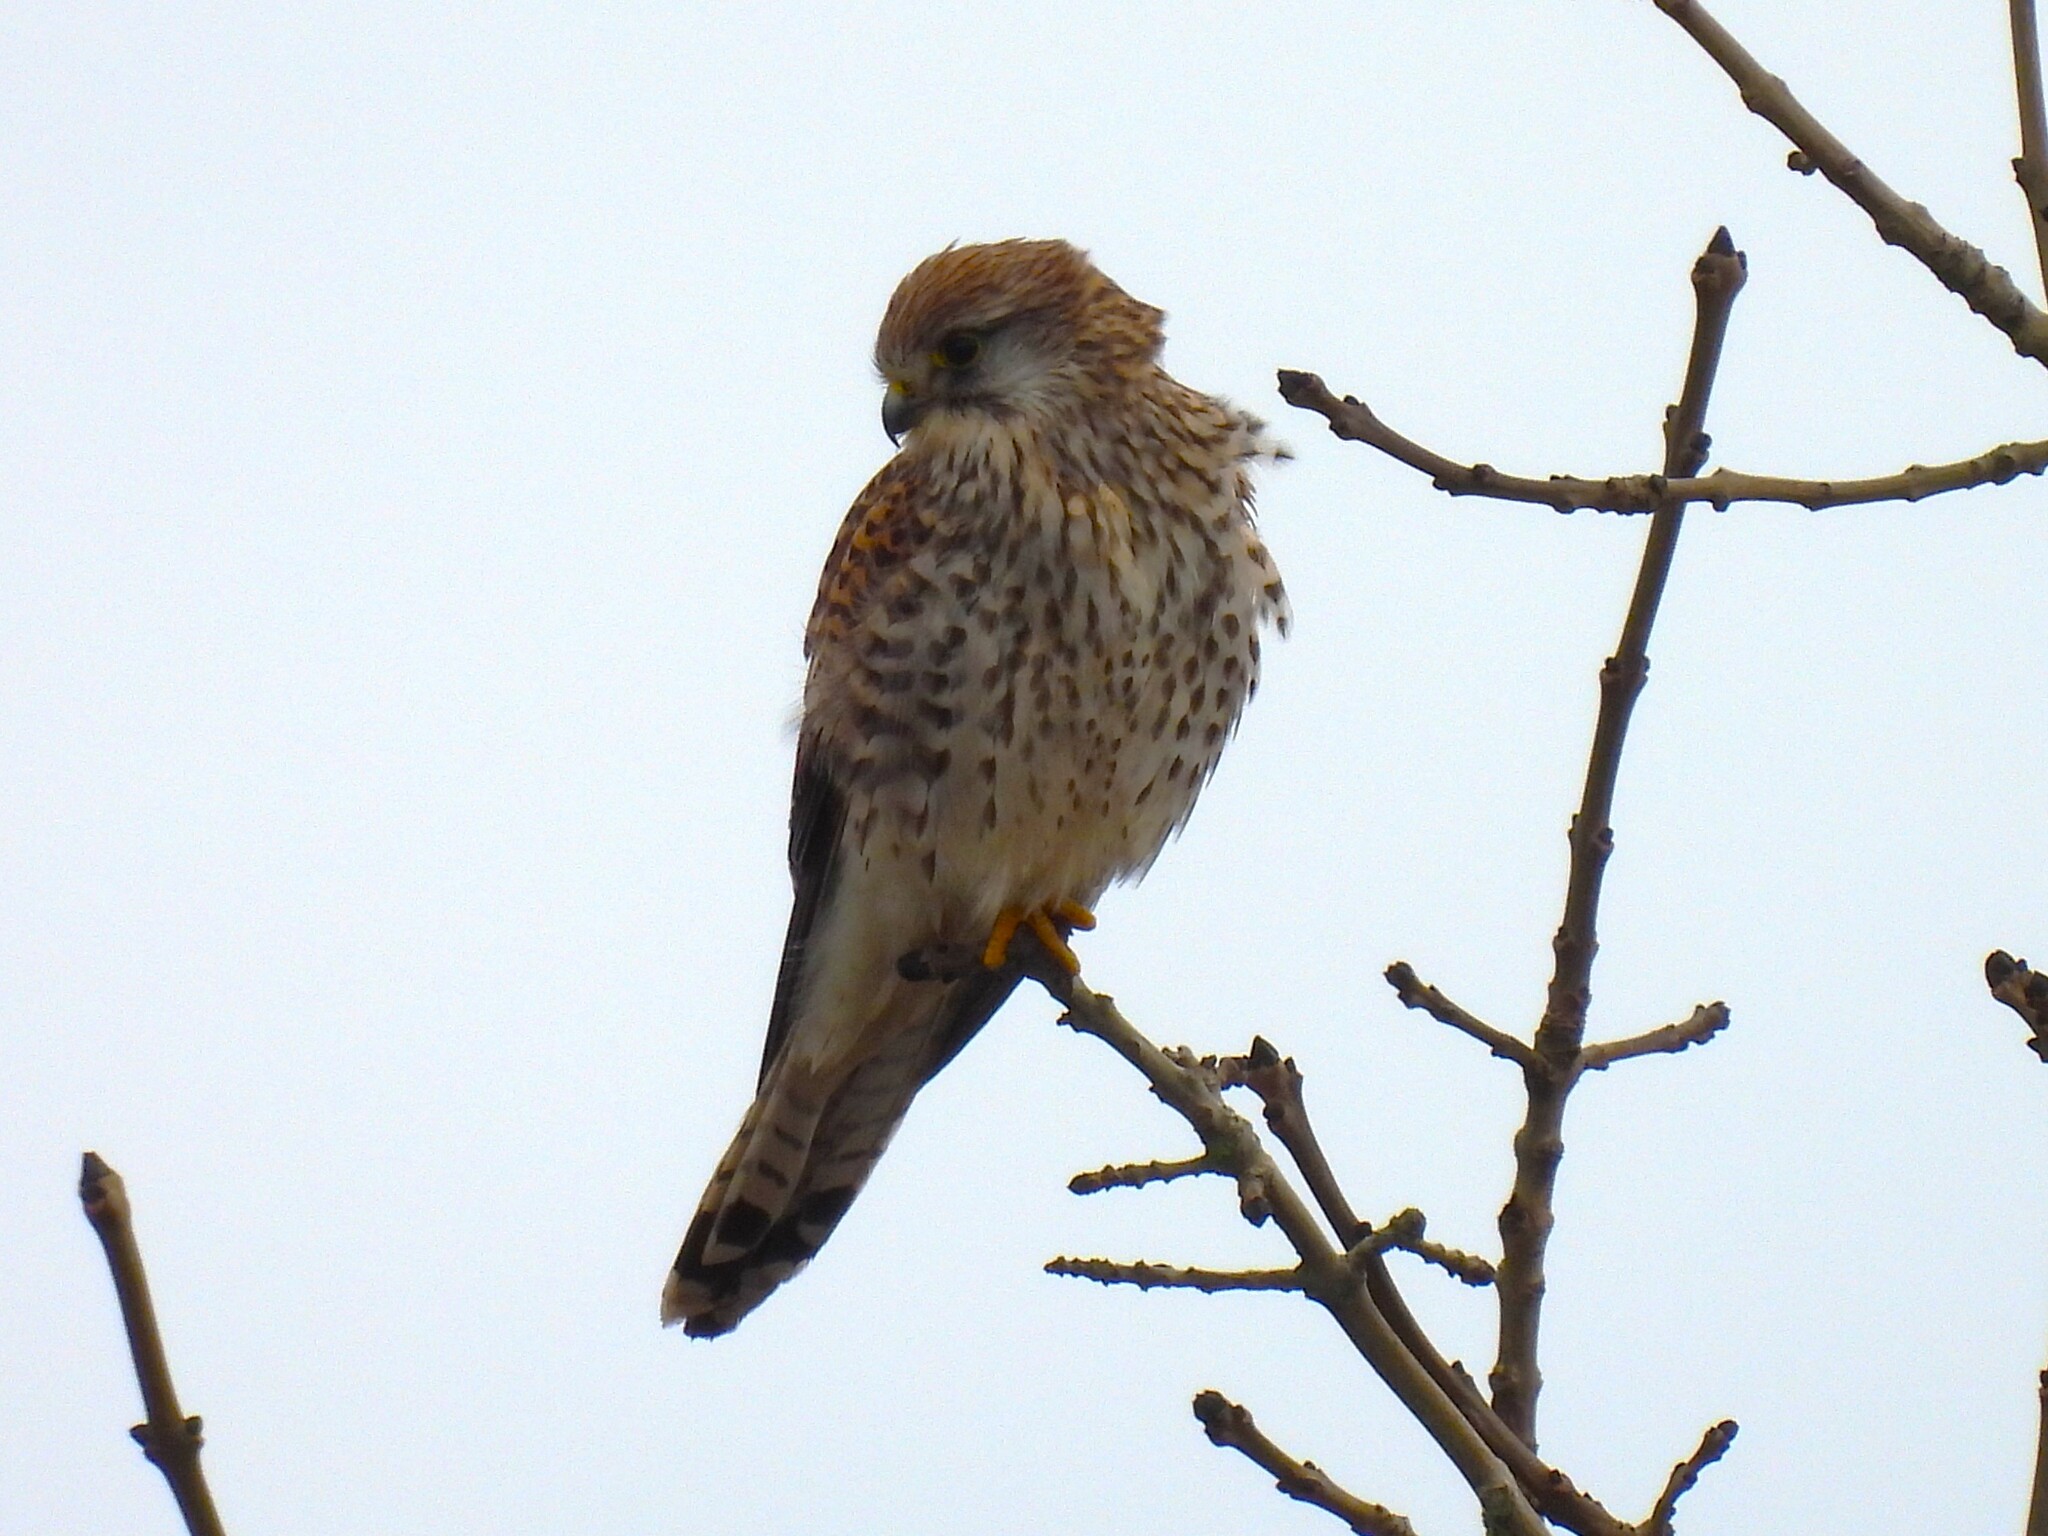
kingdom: Animalia
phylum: Chordata
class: Aves
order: Falconiformes
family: Falconidae
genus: Falco
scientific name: Falco tinnunculus
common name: Common kestrel
